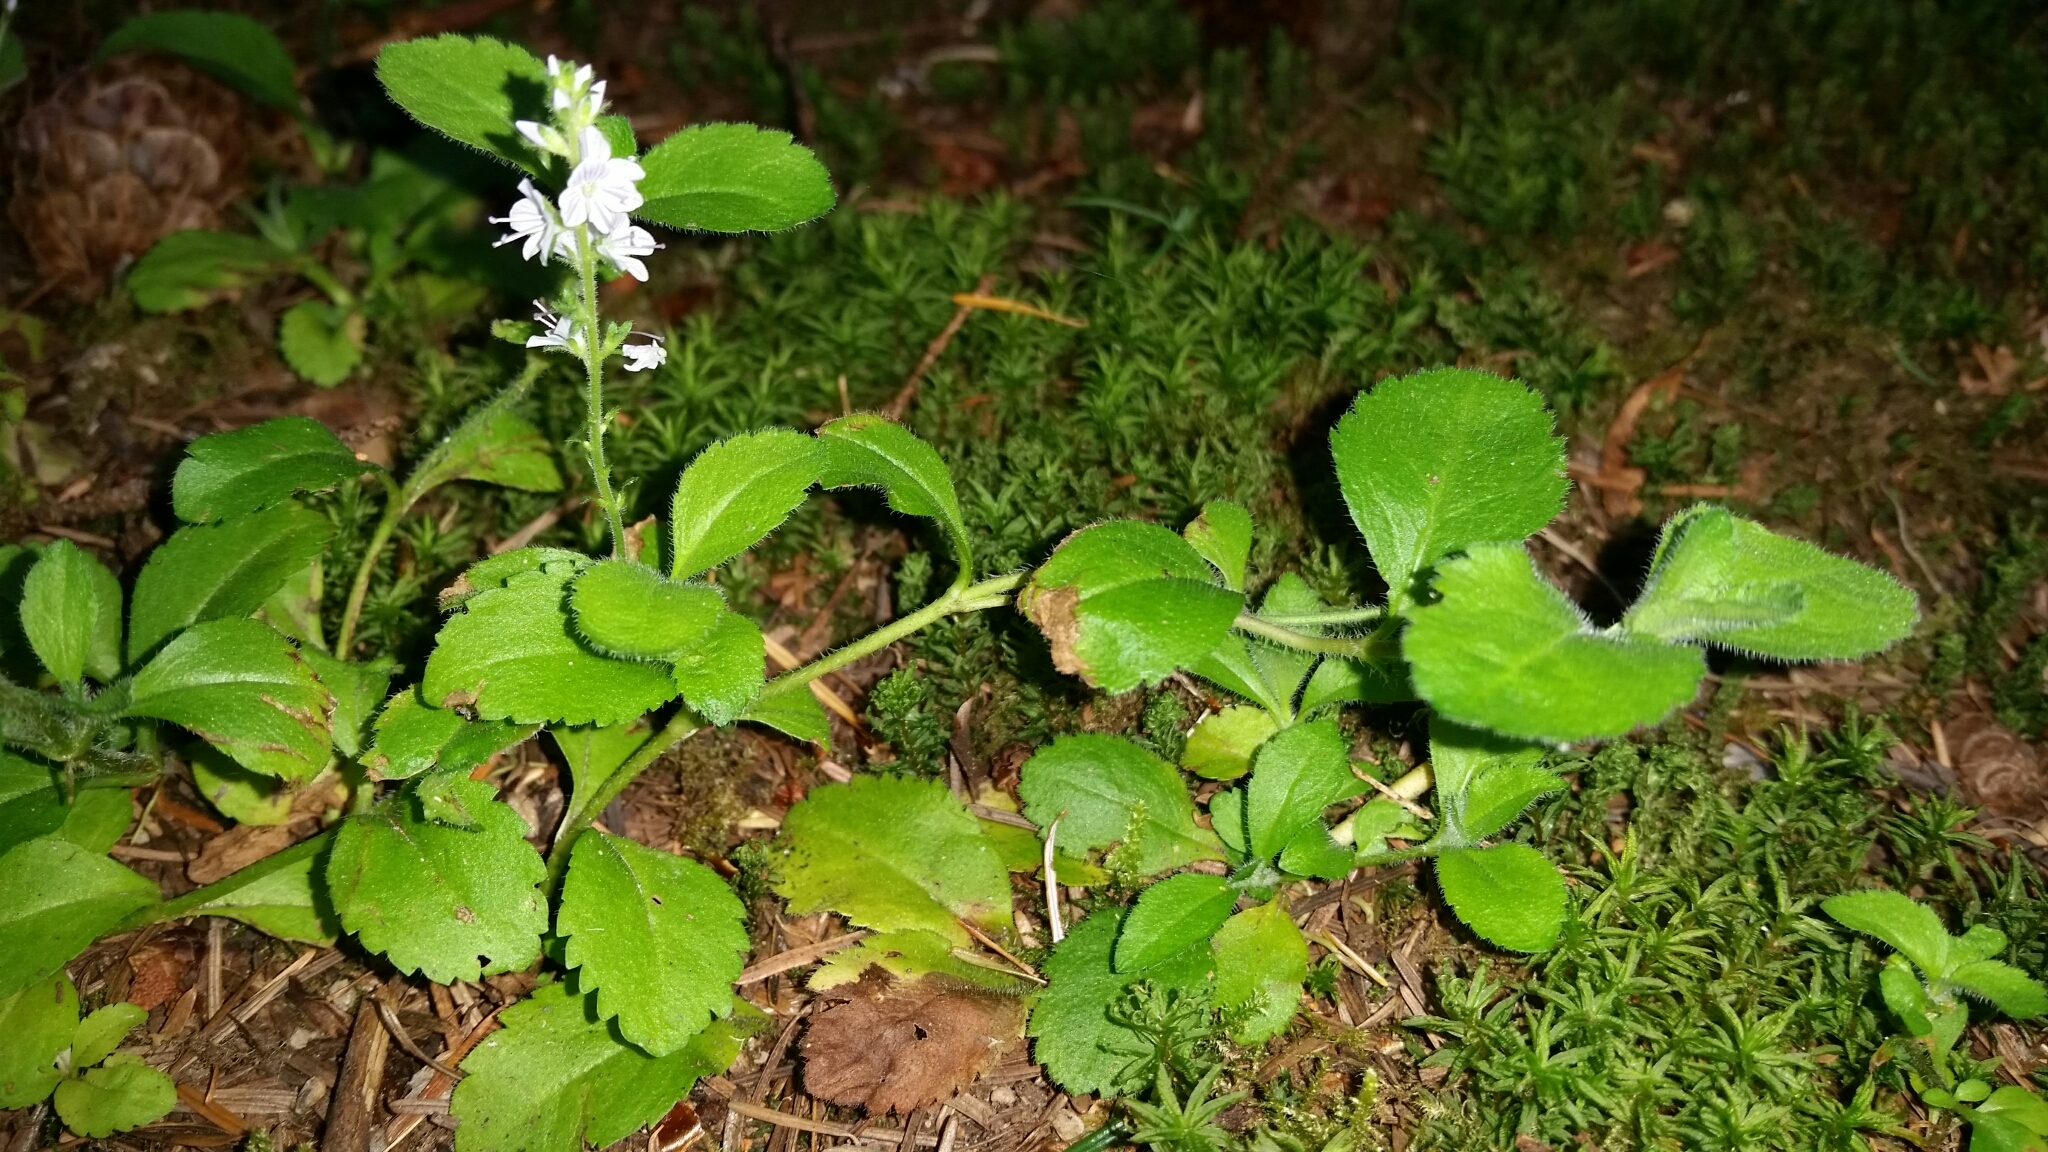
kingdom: Plantae
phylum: Tracheophyta
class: Magnoliopsida
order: Lamiales
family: Plantaginaceae
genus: Veronica
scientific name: Veronica officinalis
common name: Common speedwell
